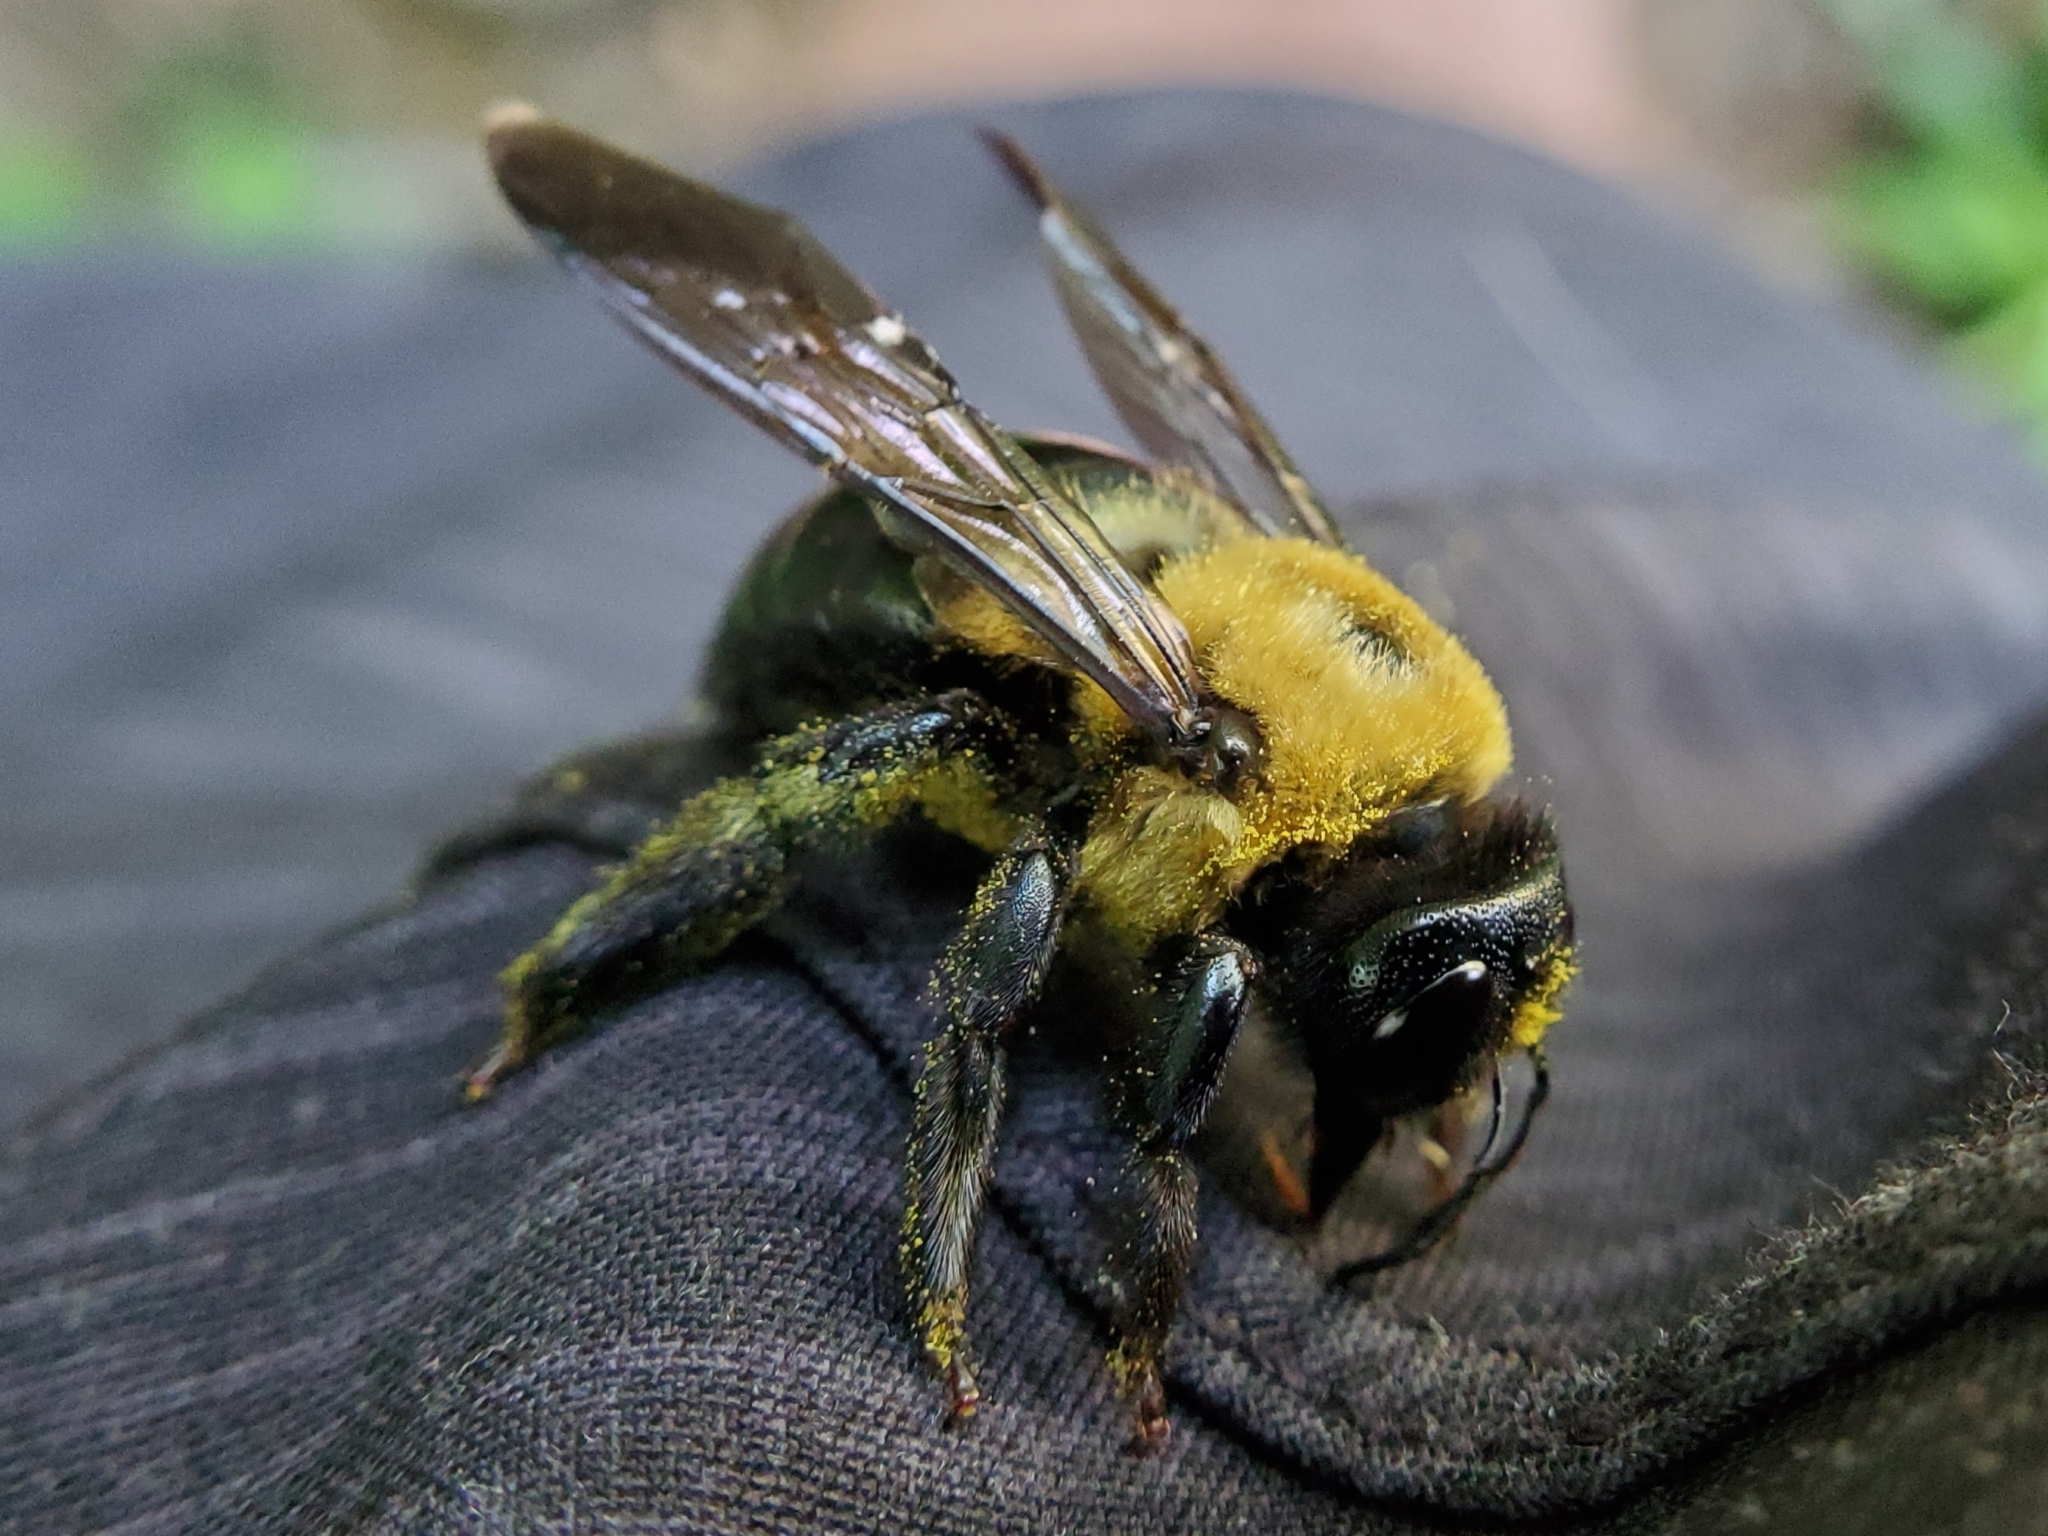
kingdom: Animalia
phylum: Arthropoda
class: Insecta
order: Hymenoptera
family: Apidae
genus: Xylocopa
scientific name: Xylocopa virginica
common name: Carpenter bee
